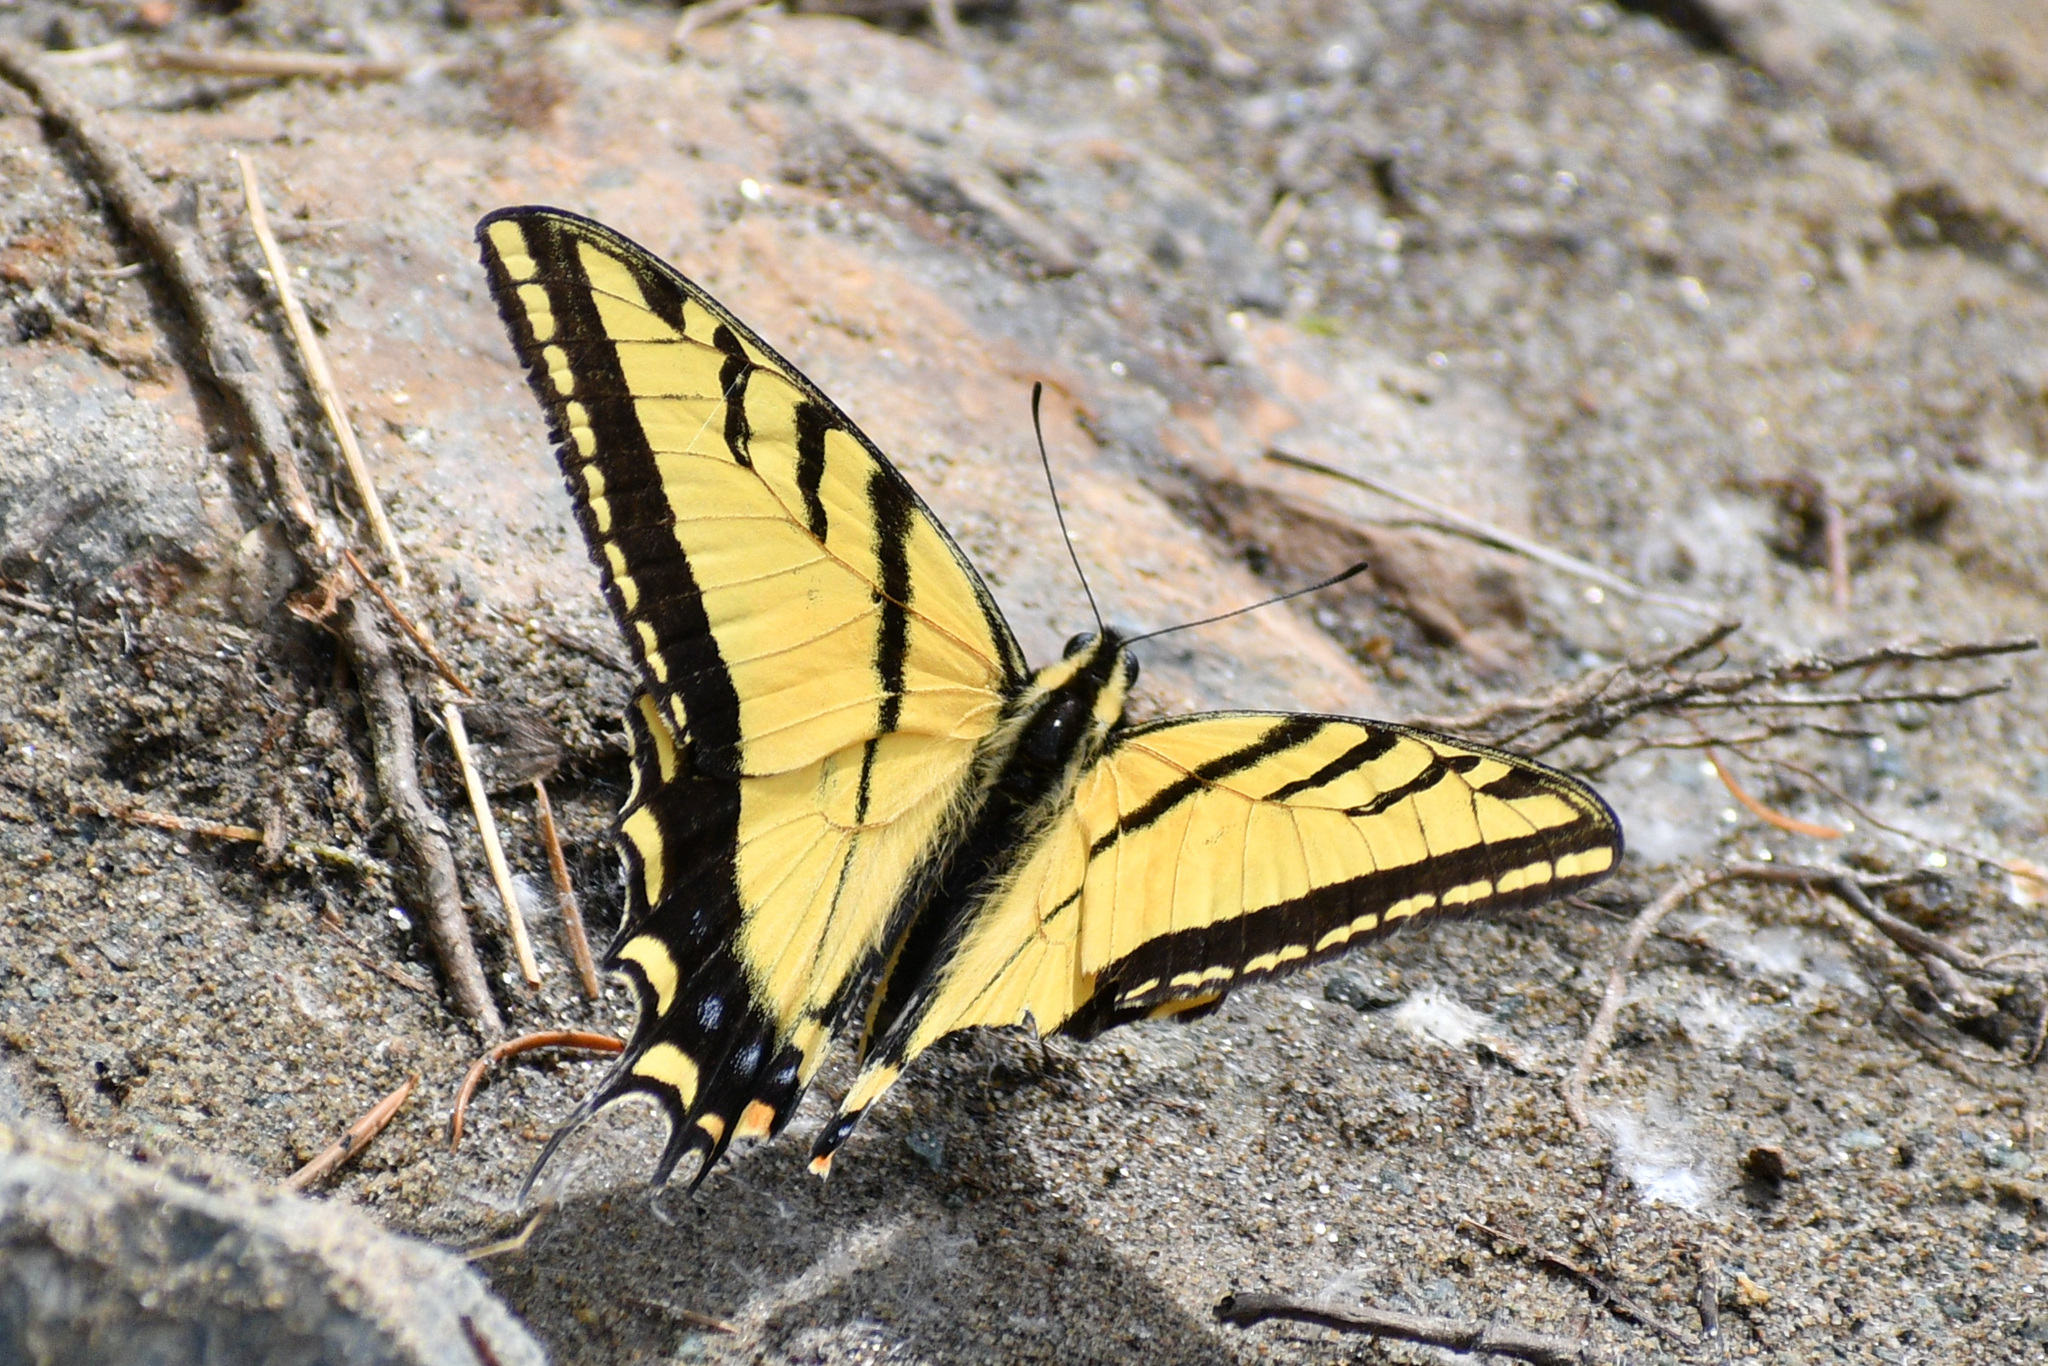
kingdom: Animalia
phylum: Arthropoda
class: Insecta
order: Lepidoptera
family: Papilionidae
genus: Papilio
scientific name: Papilio multicaudata
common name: Two-tailed tiger swallowtail
